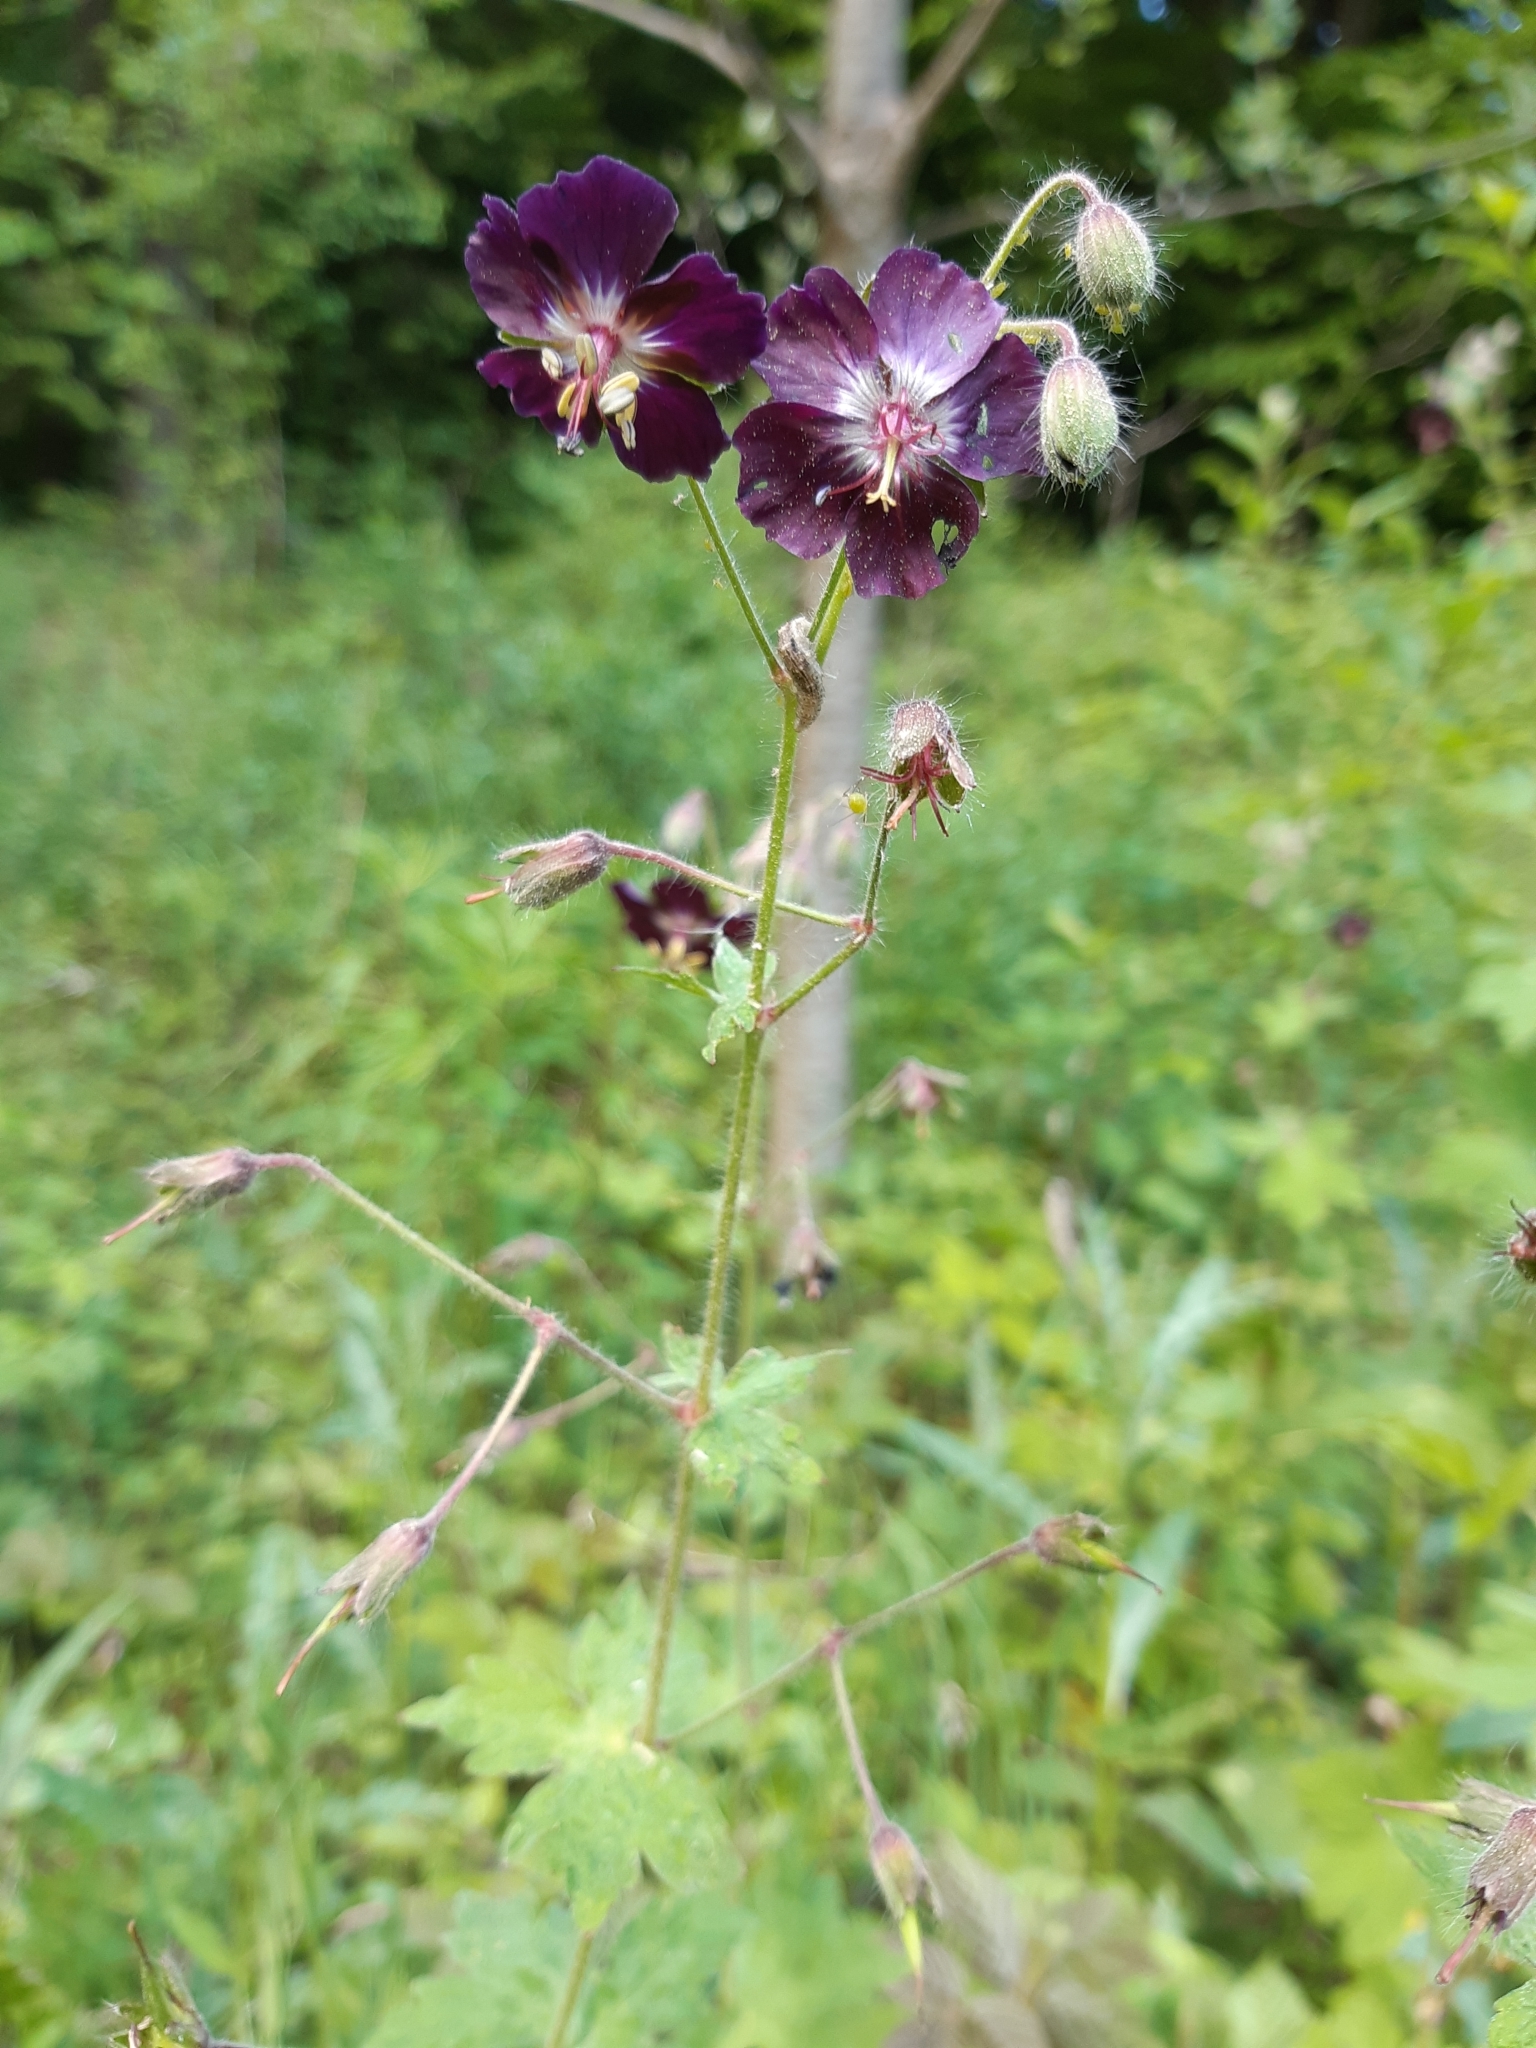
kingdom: Plantae
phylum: Tracheophyta
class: Magnoliopsida
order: Geraniales
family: Geraniaceae
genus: Geranium
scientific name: Geranium phaeum
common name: Dusky crane's-bill
